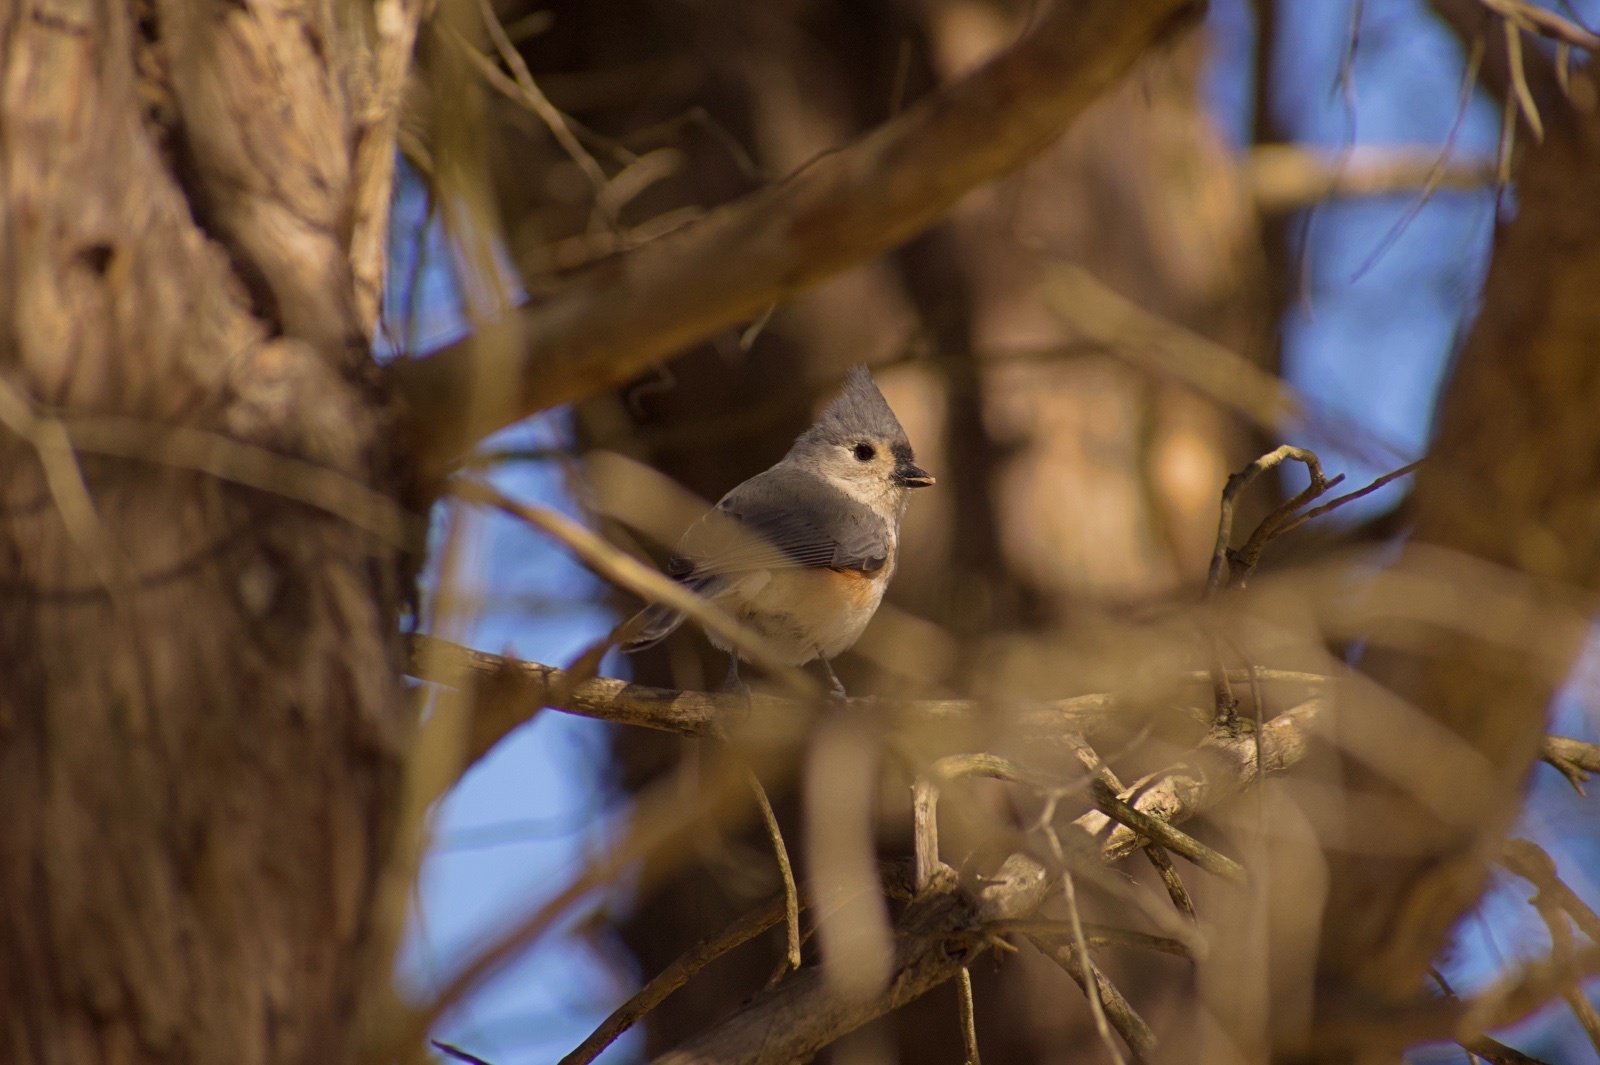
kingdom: Animalia
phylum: Chordata
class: Aves
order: Passeriformes
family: Paridae
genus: Baeolophus
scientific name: Baeolophus bicolor
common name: Tufted titmouse
